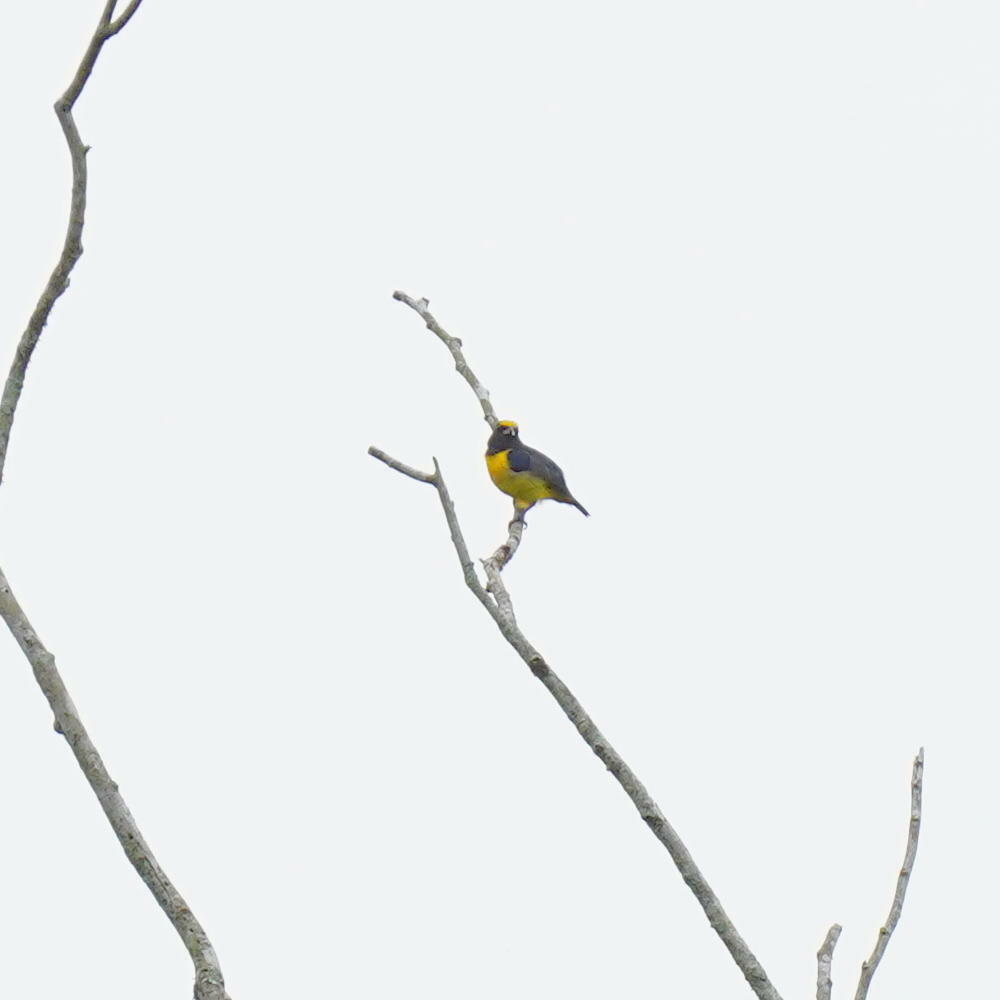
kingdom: Animalia
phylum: Chordata
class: Aves
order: Passeriformes
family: Fringillidae
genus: Euphonia
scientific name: Euphonia luteicapilla
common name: Yellow-crowned euphonia
